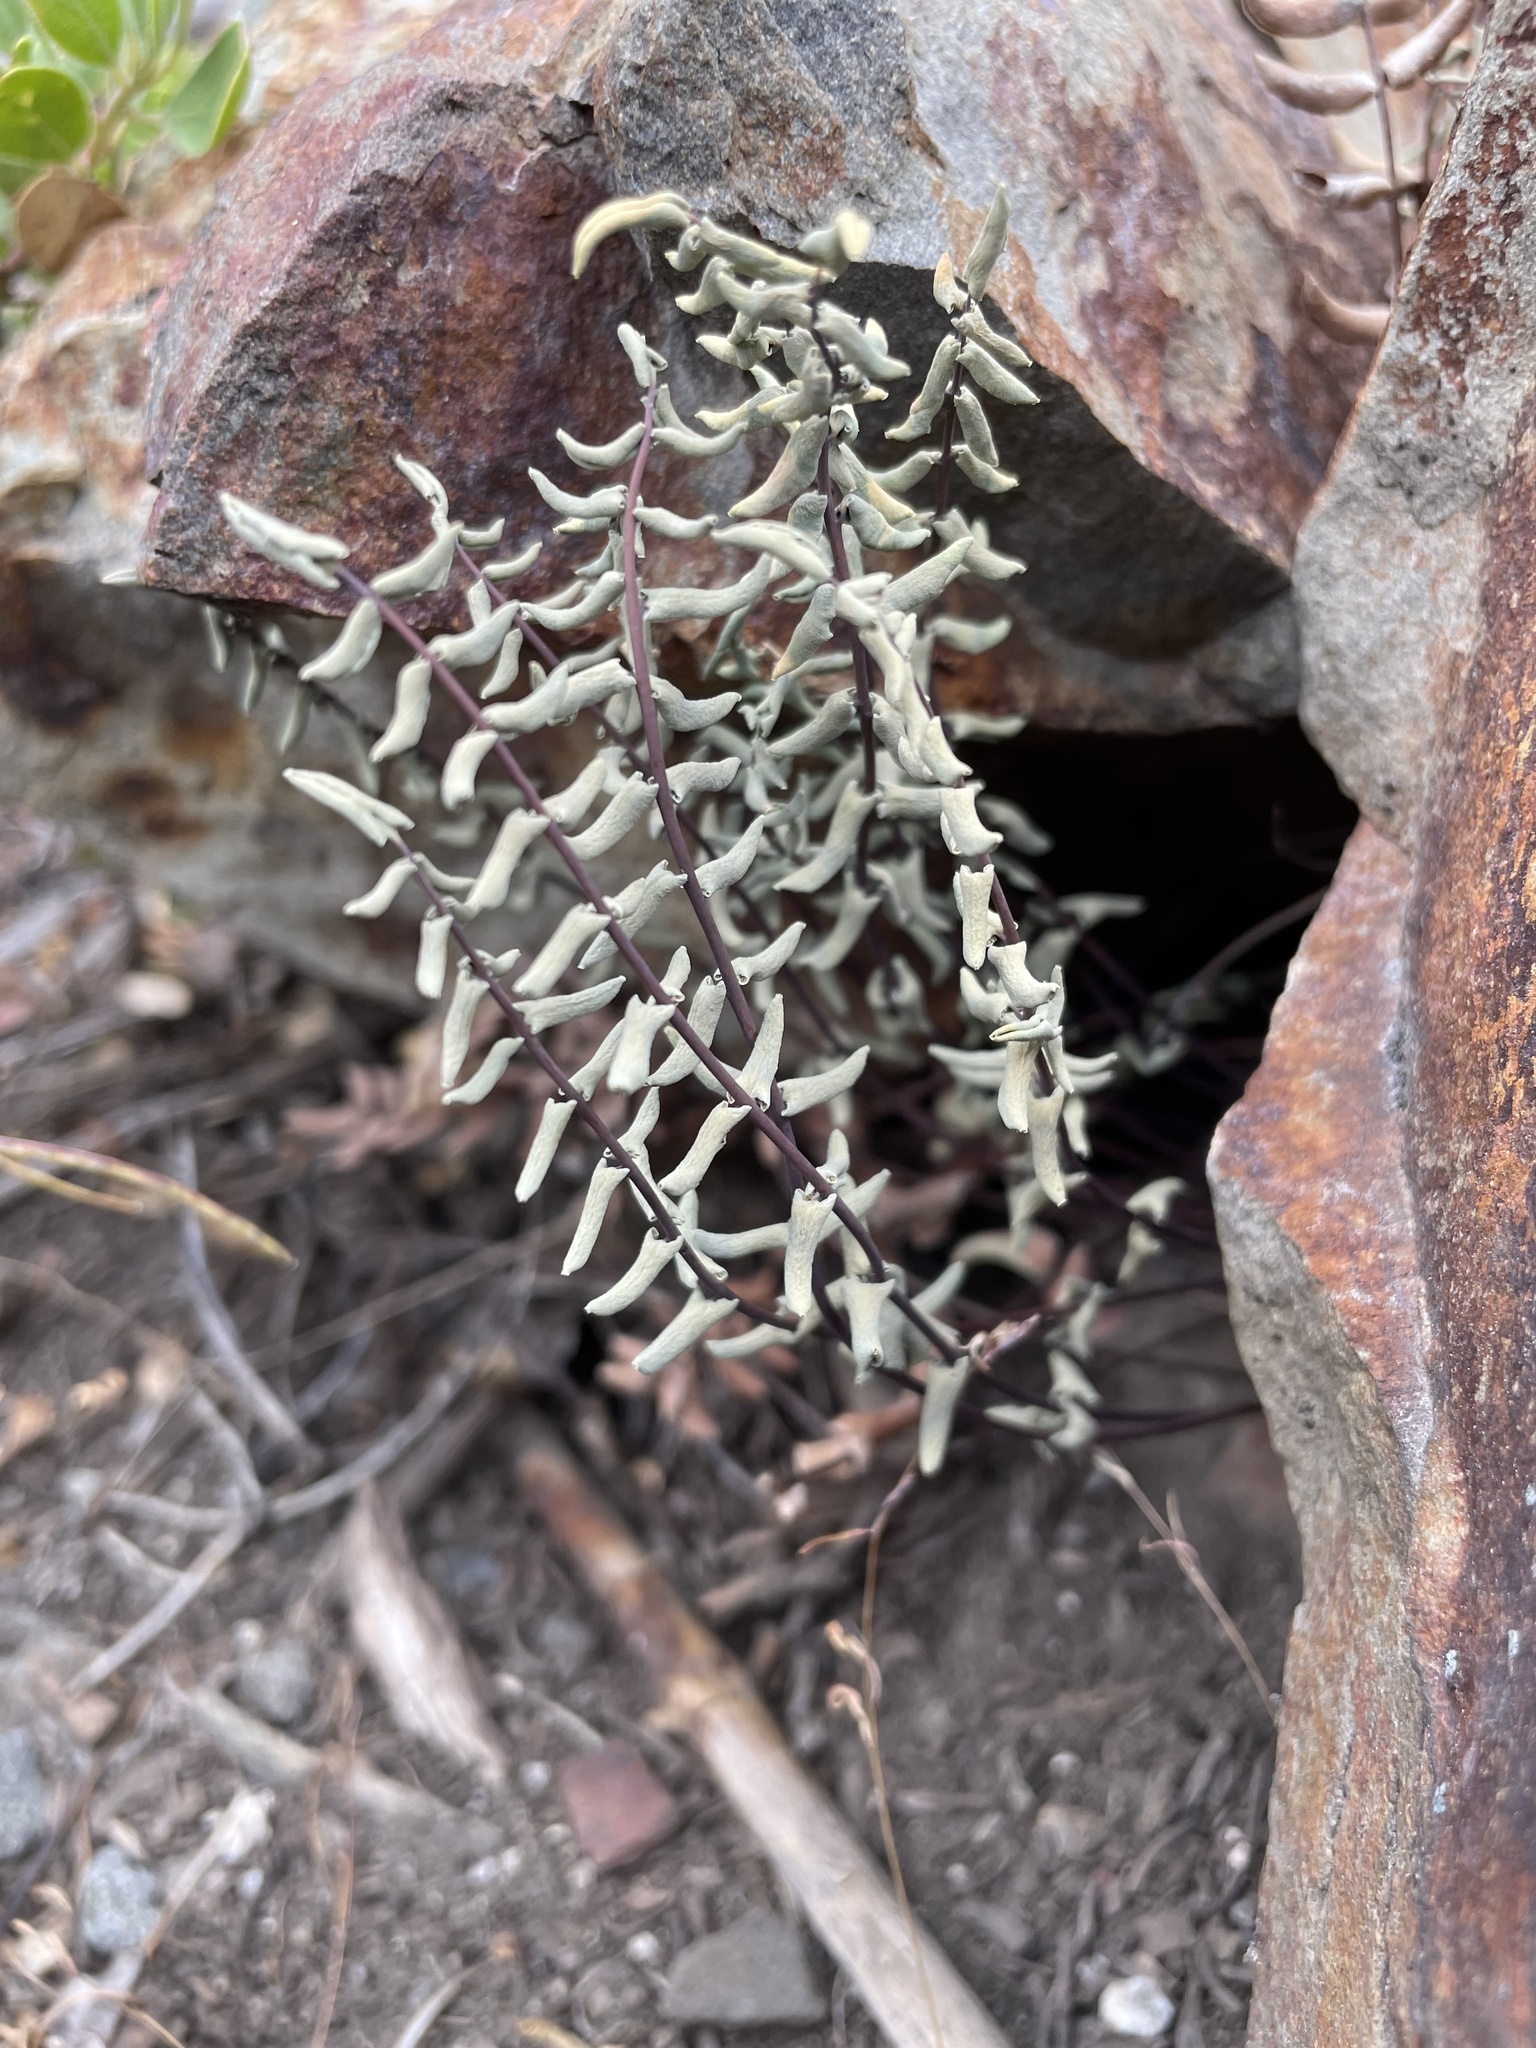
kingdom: Plantae
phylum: Tracheophyta
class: Polypodiopsida
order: Polypodiales
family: Pteridaceae
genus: Pellaea
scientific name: Pellaea bridgesii
